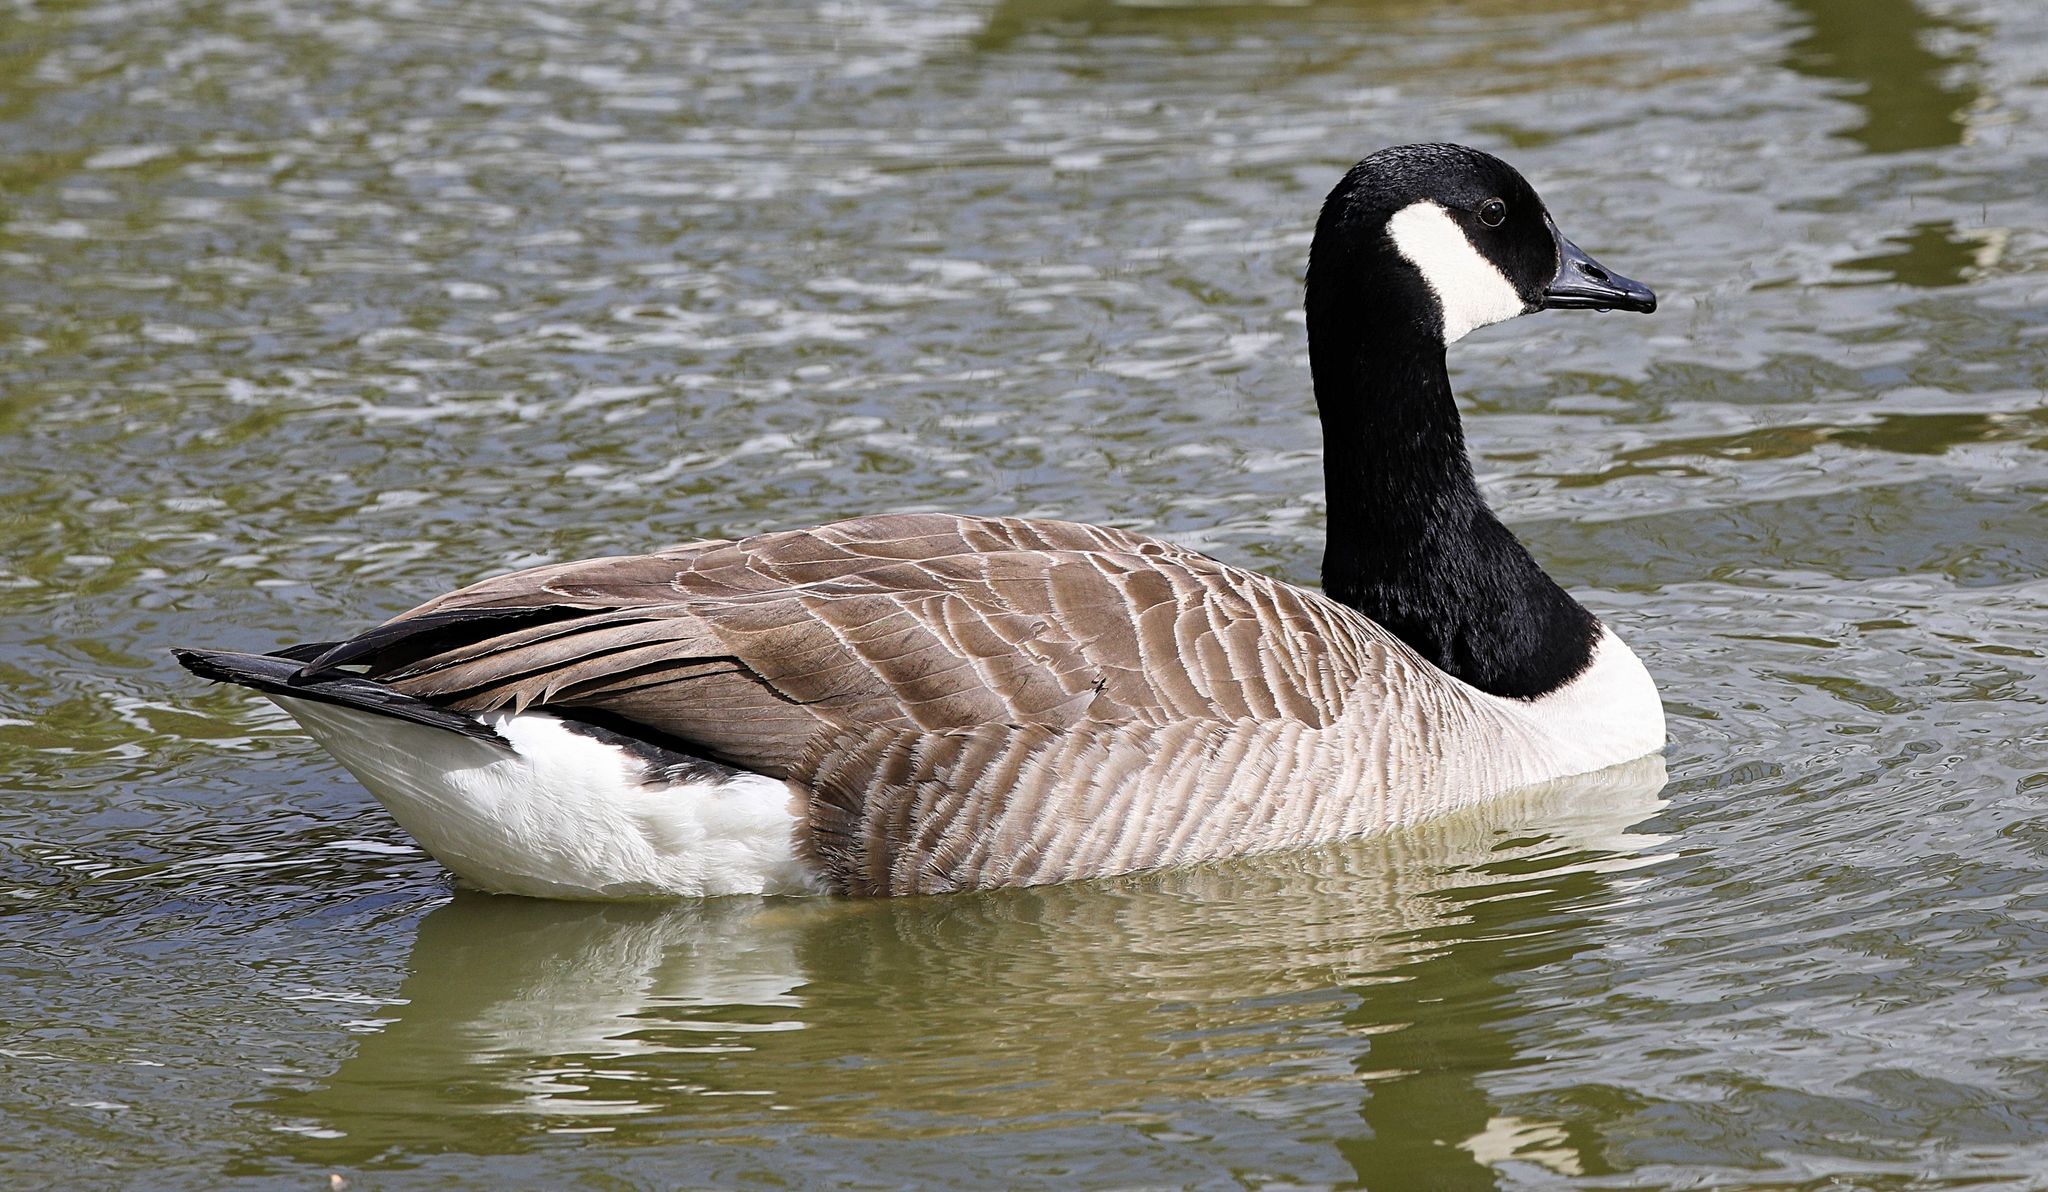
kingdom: Animalia
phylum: Chordata
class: Aves
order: Anseriformes
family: Anatidae
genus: Branta
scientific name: Branta canadensis
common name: Canada goose
